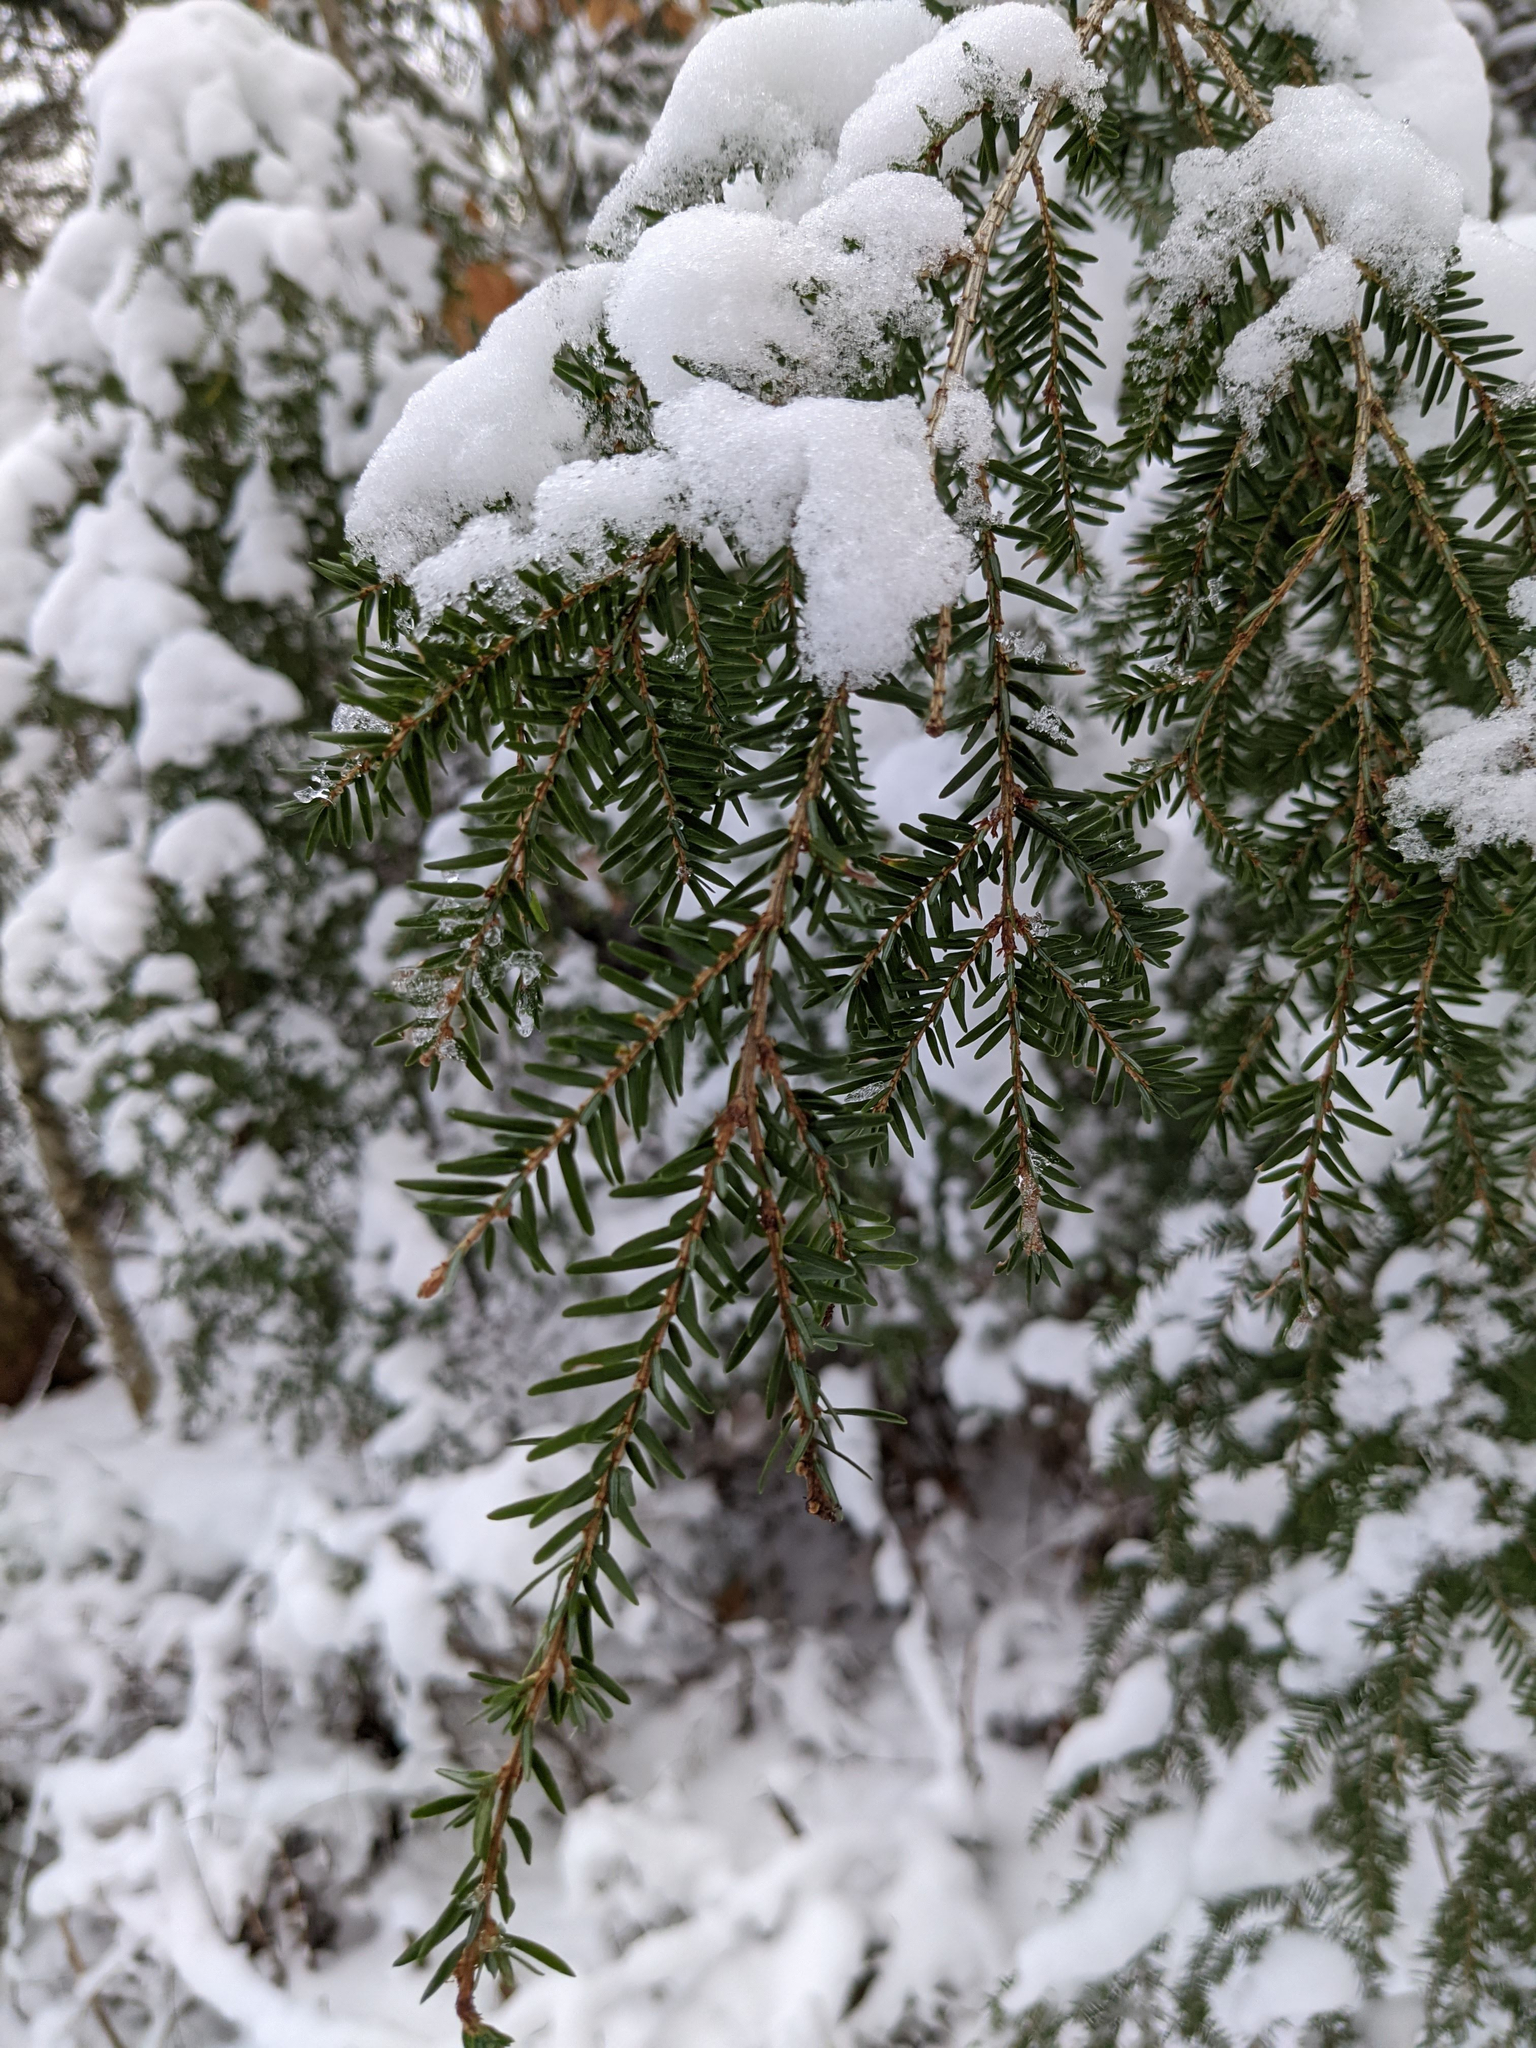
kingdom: Plantae
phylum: Tracheophyta
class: Pinopsida
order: Pinales
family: Pinaceae
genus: Tsuga
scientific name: Tsuga canadensis
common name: Eastern hemlock
